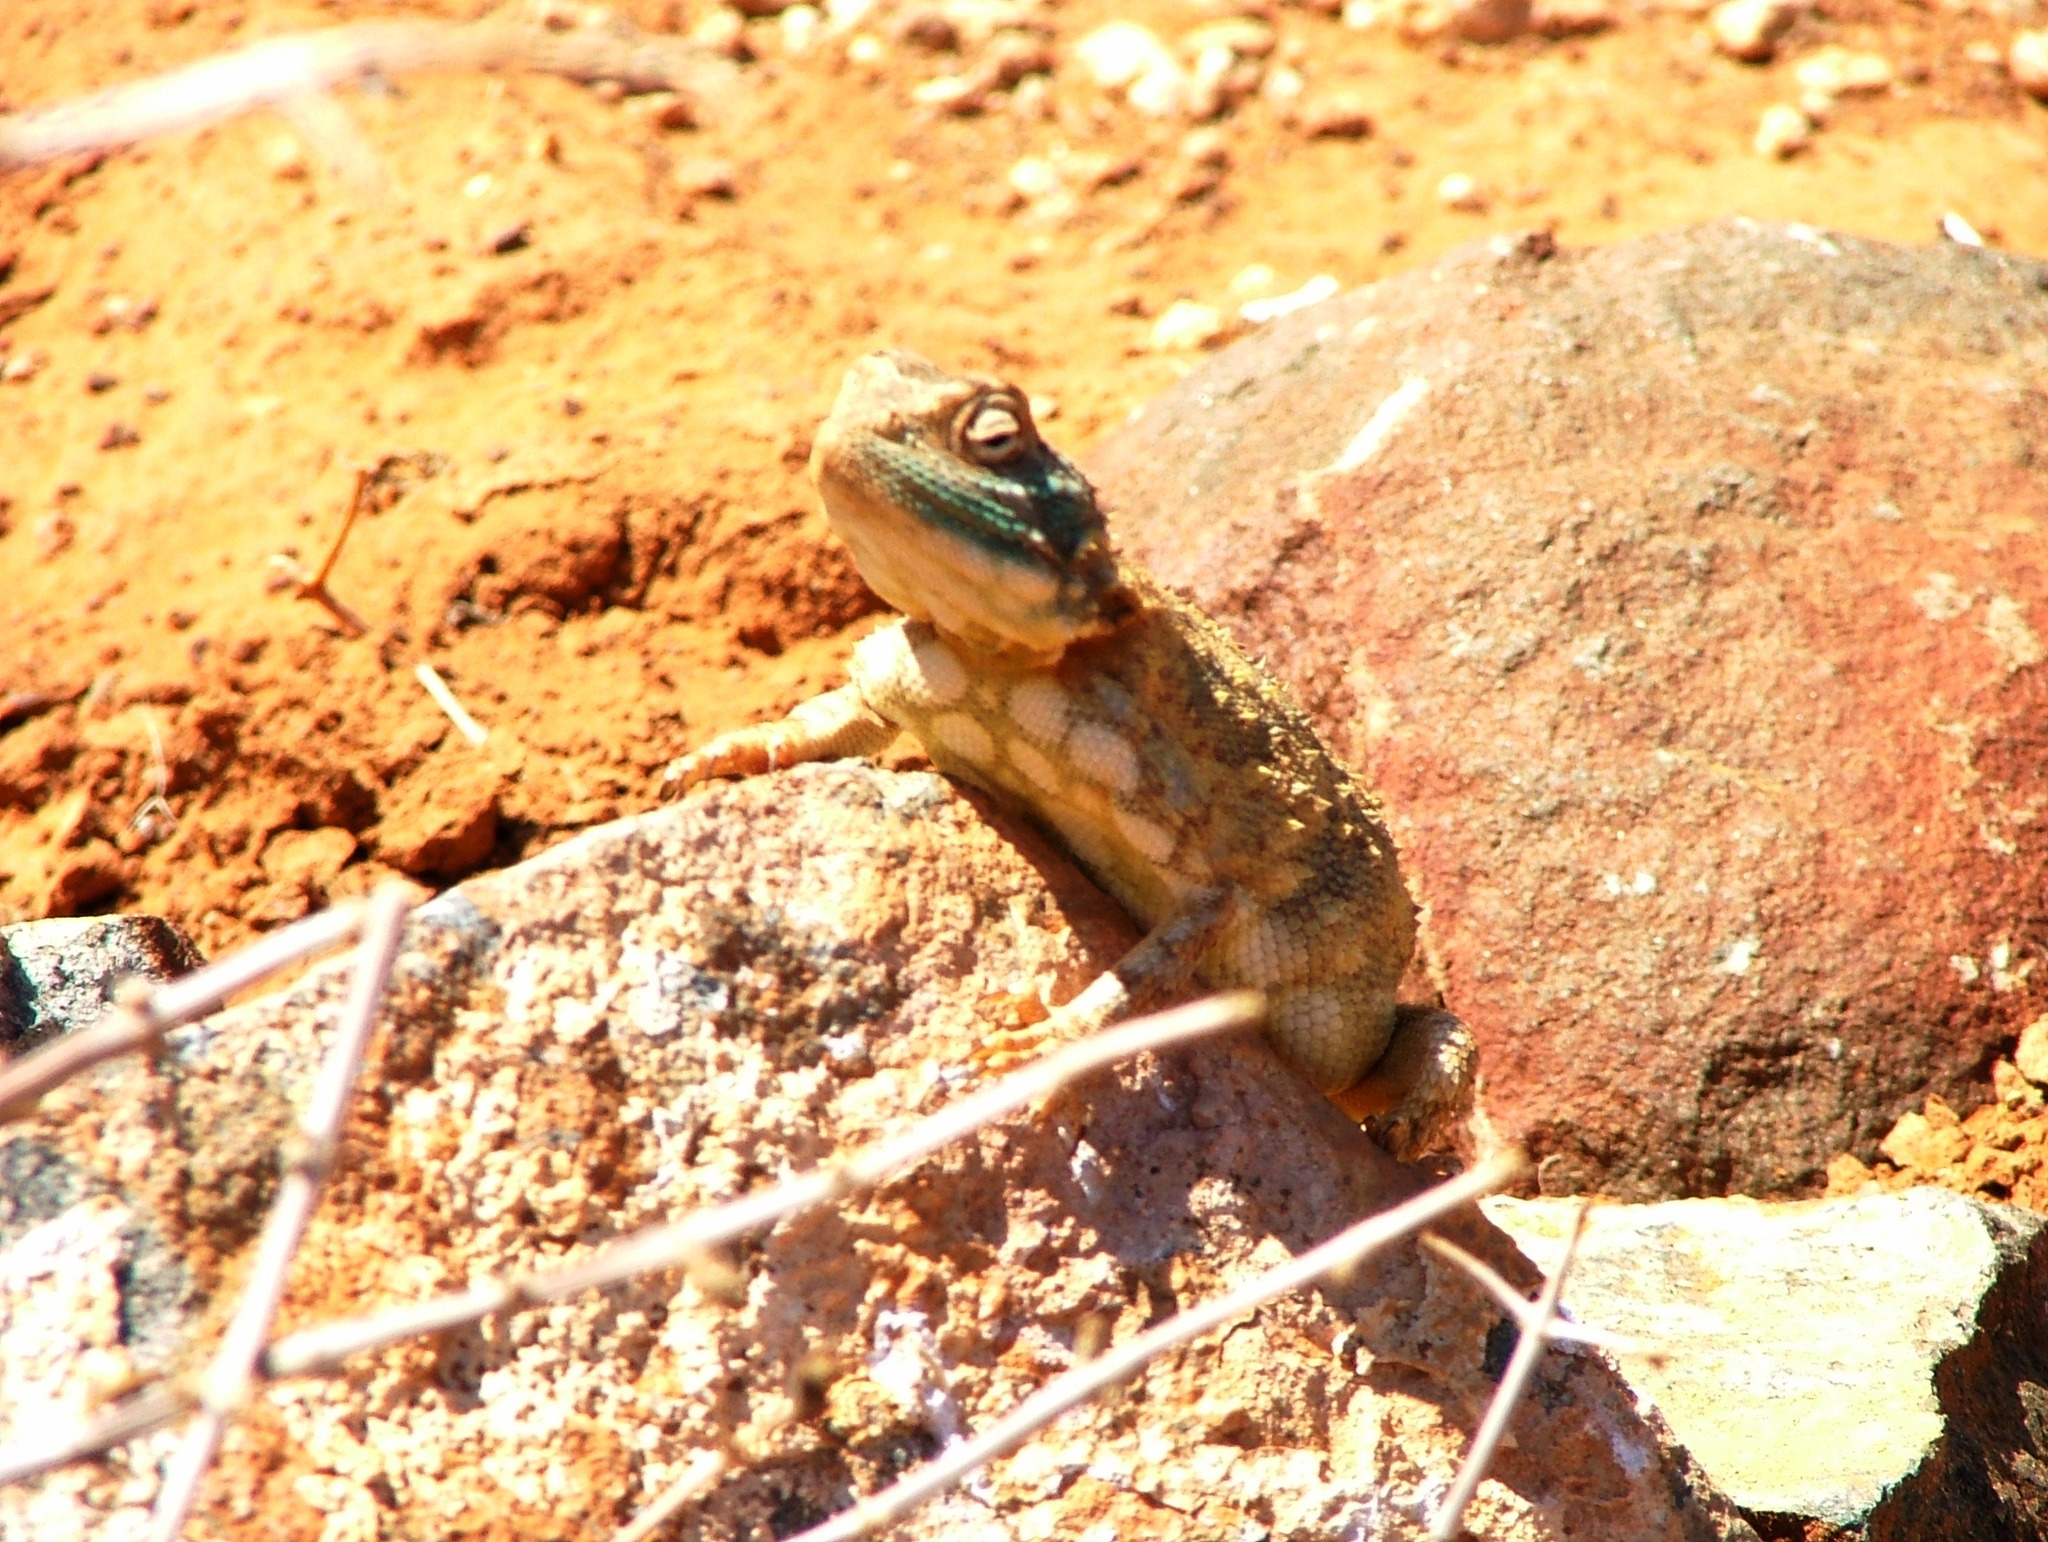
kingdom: Animalia
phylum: Chordata
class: Squamata
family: Agamidae
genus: Agama
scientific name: Agama hispida
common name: Common spiny agama
